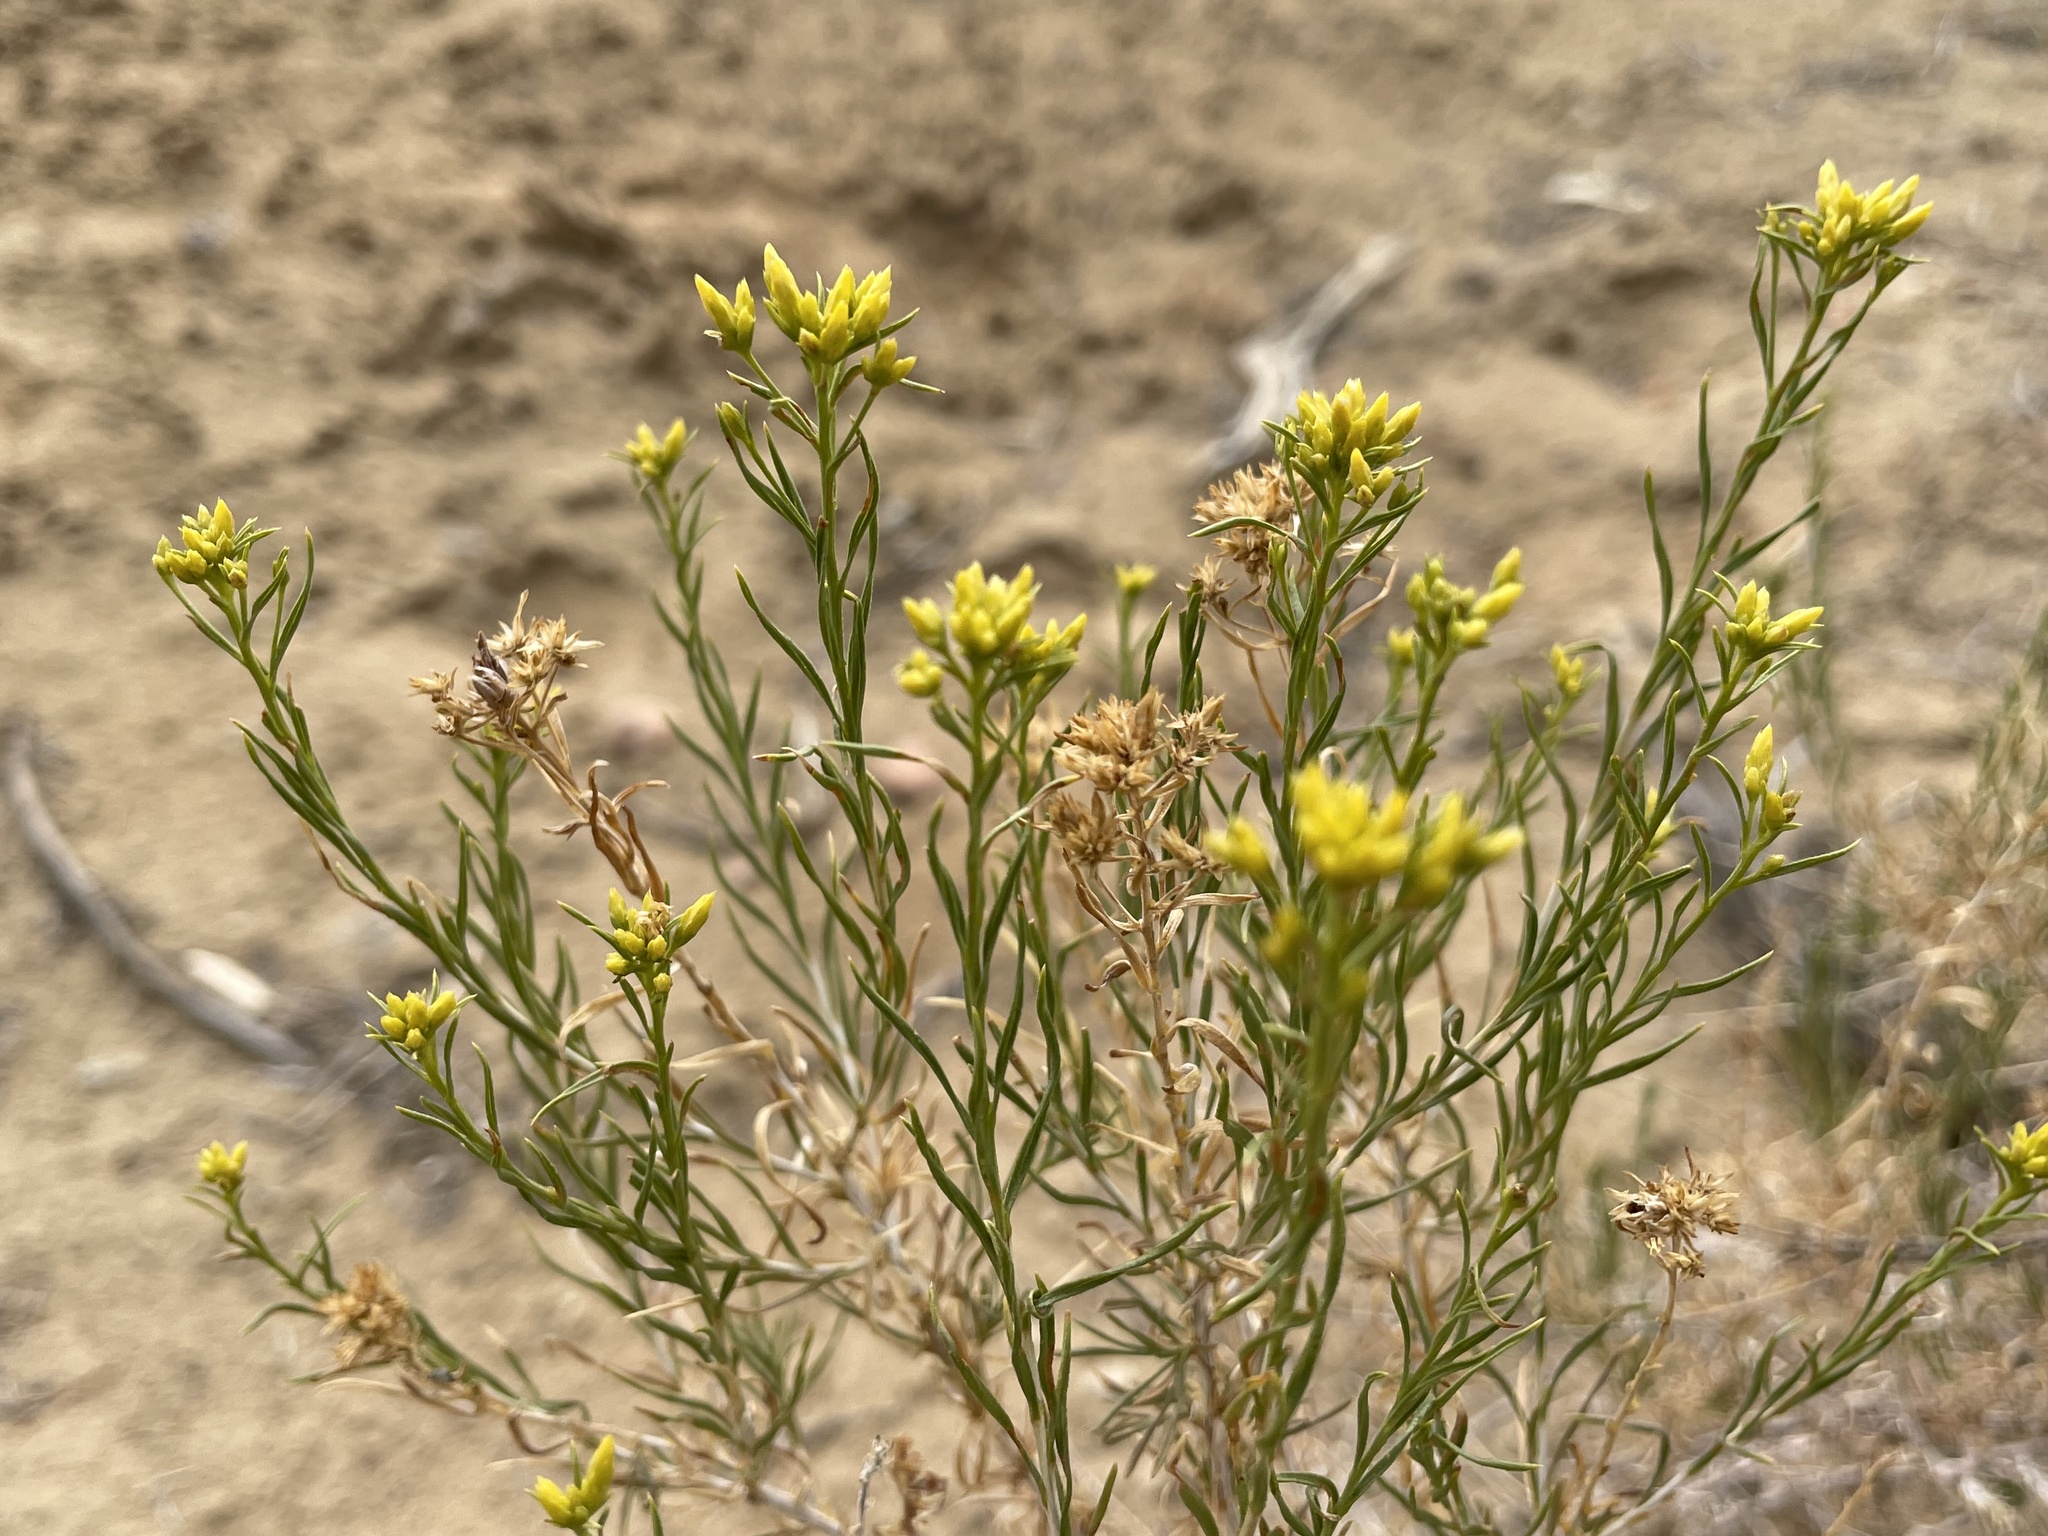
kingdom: Plantae
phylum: Tracheophyta
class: Magnoliopsida
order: Asterales
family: Asteraceae
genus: Chrysothamnus
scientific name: Chrysothamnus greenei
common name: Greene's rabbitbrush
